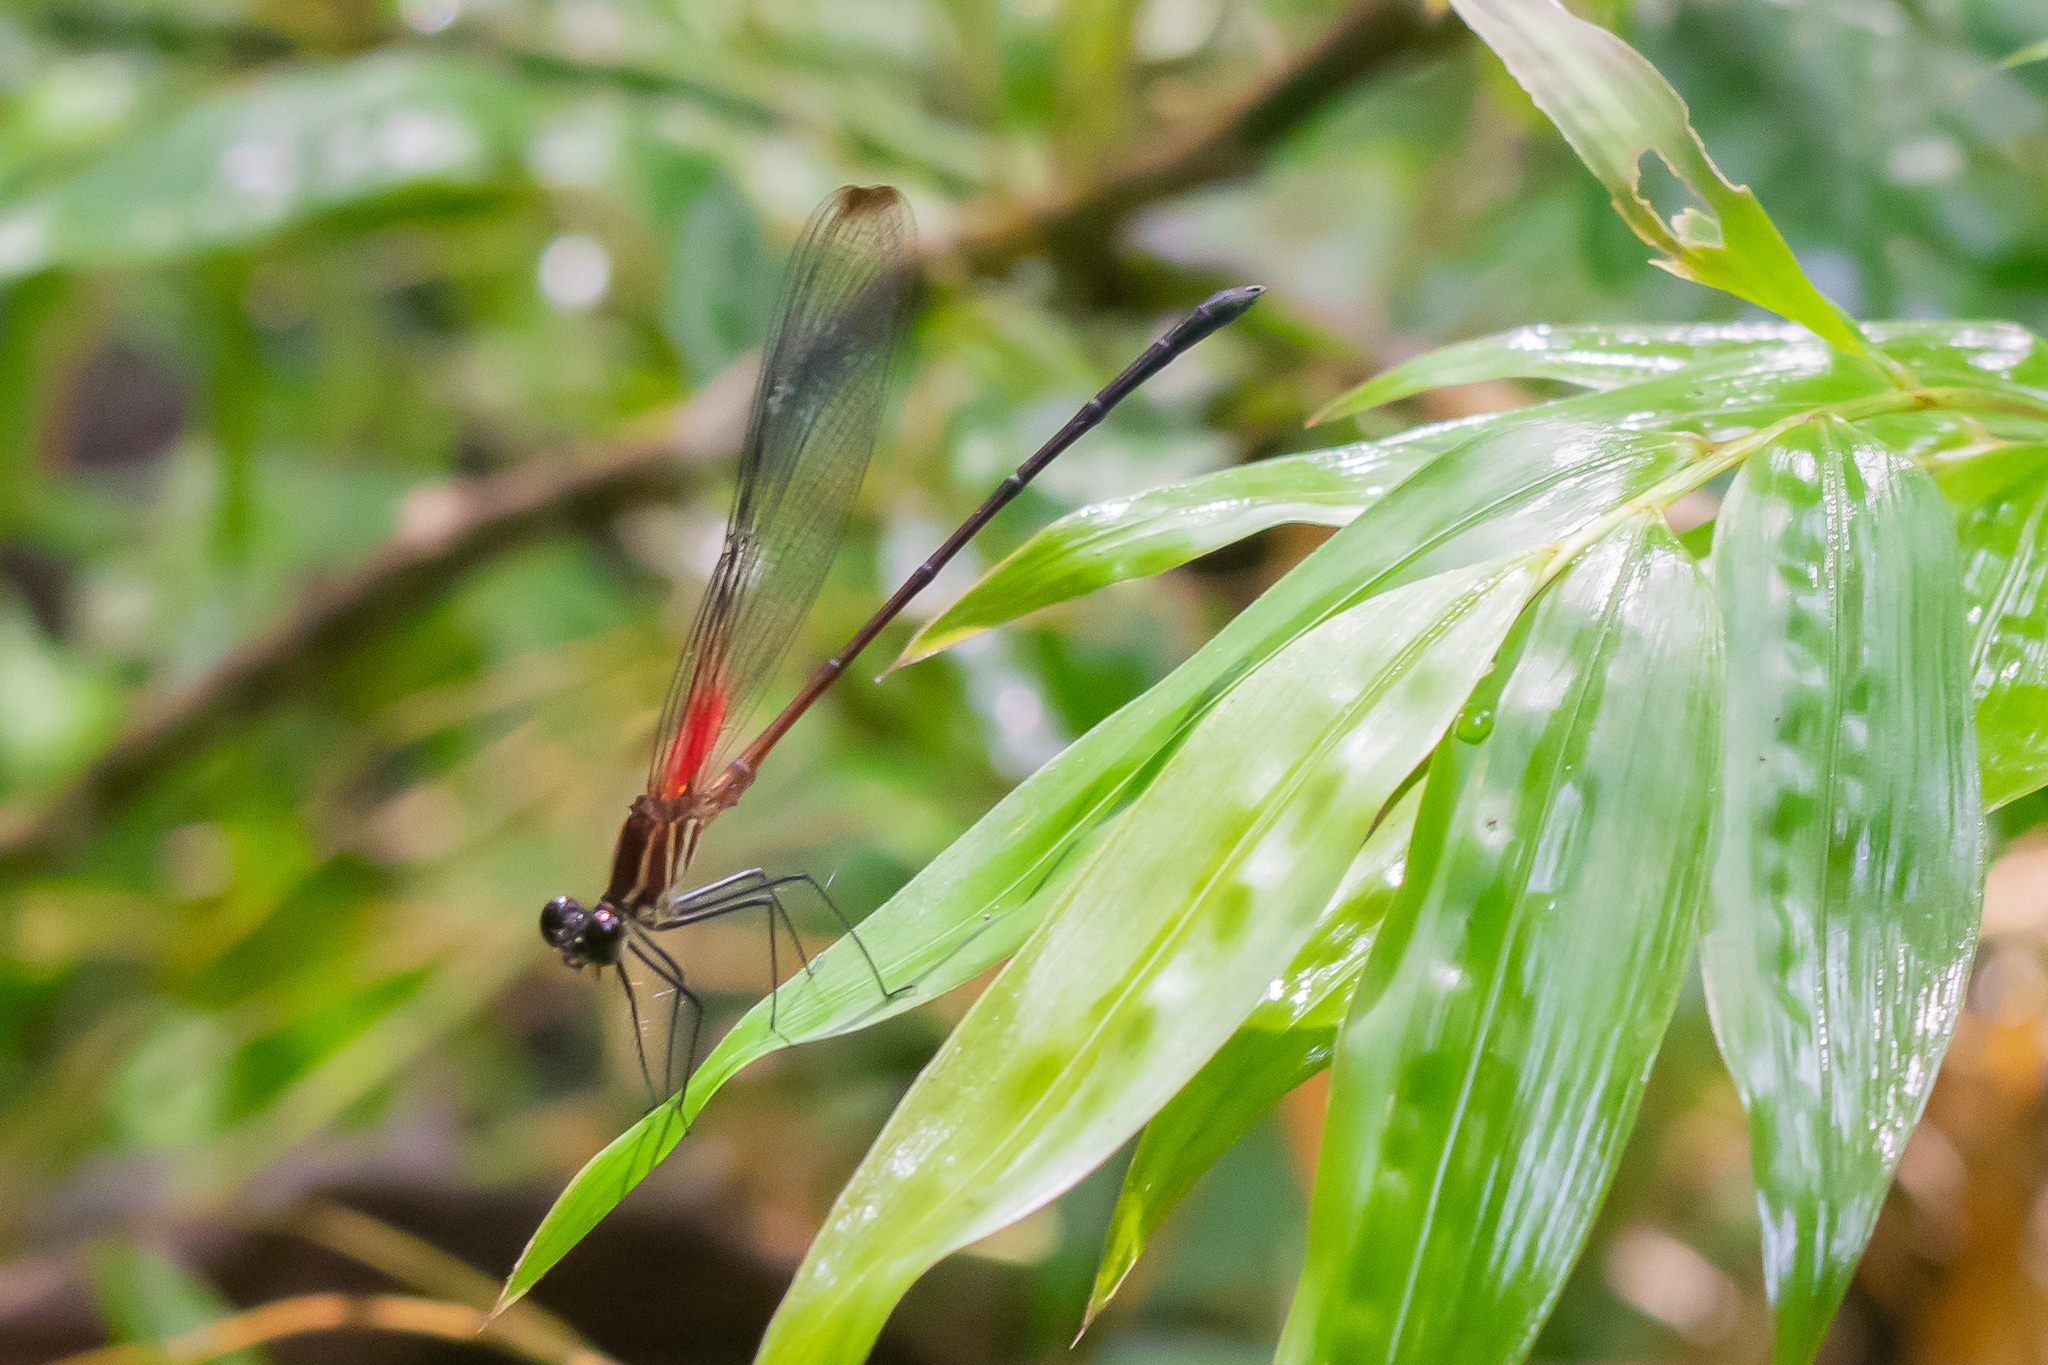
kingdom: Animalia
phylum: Arthropoda
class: Insecta
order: Odonata
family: Calopterygidae
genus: Hetaerina
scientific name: Hetaerina fuscoguttata
